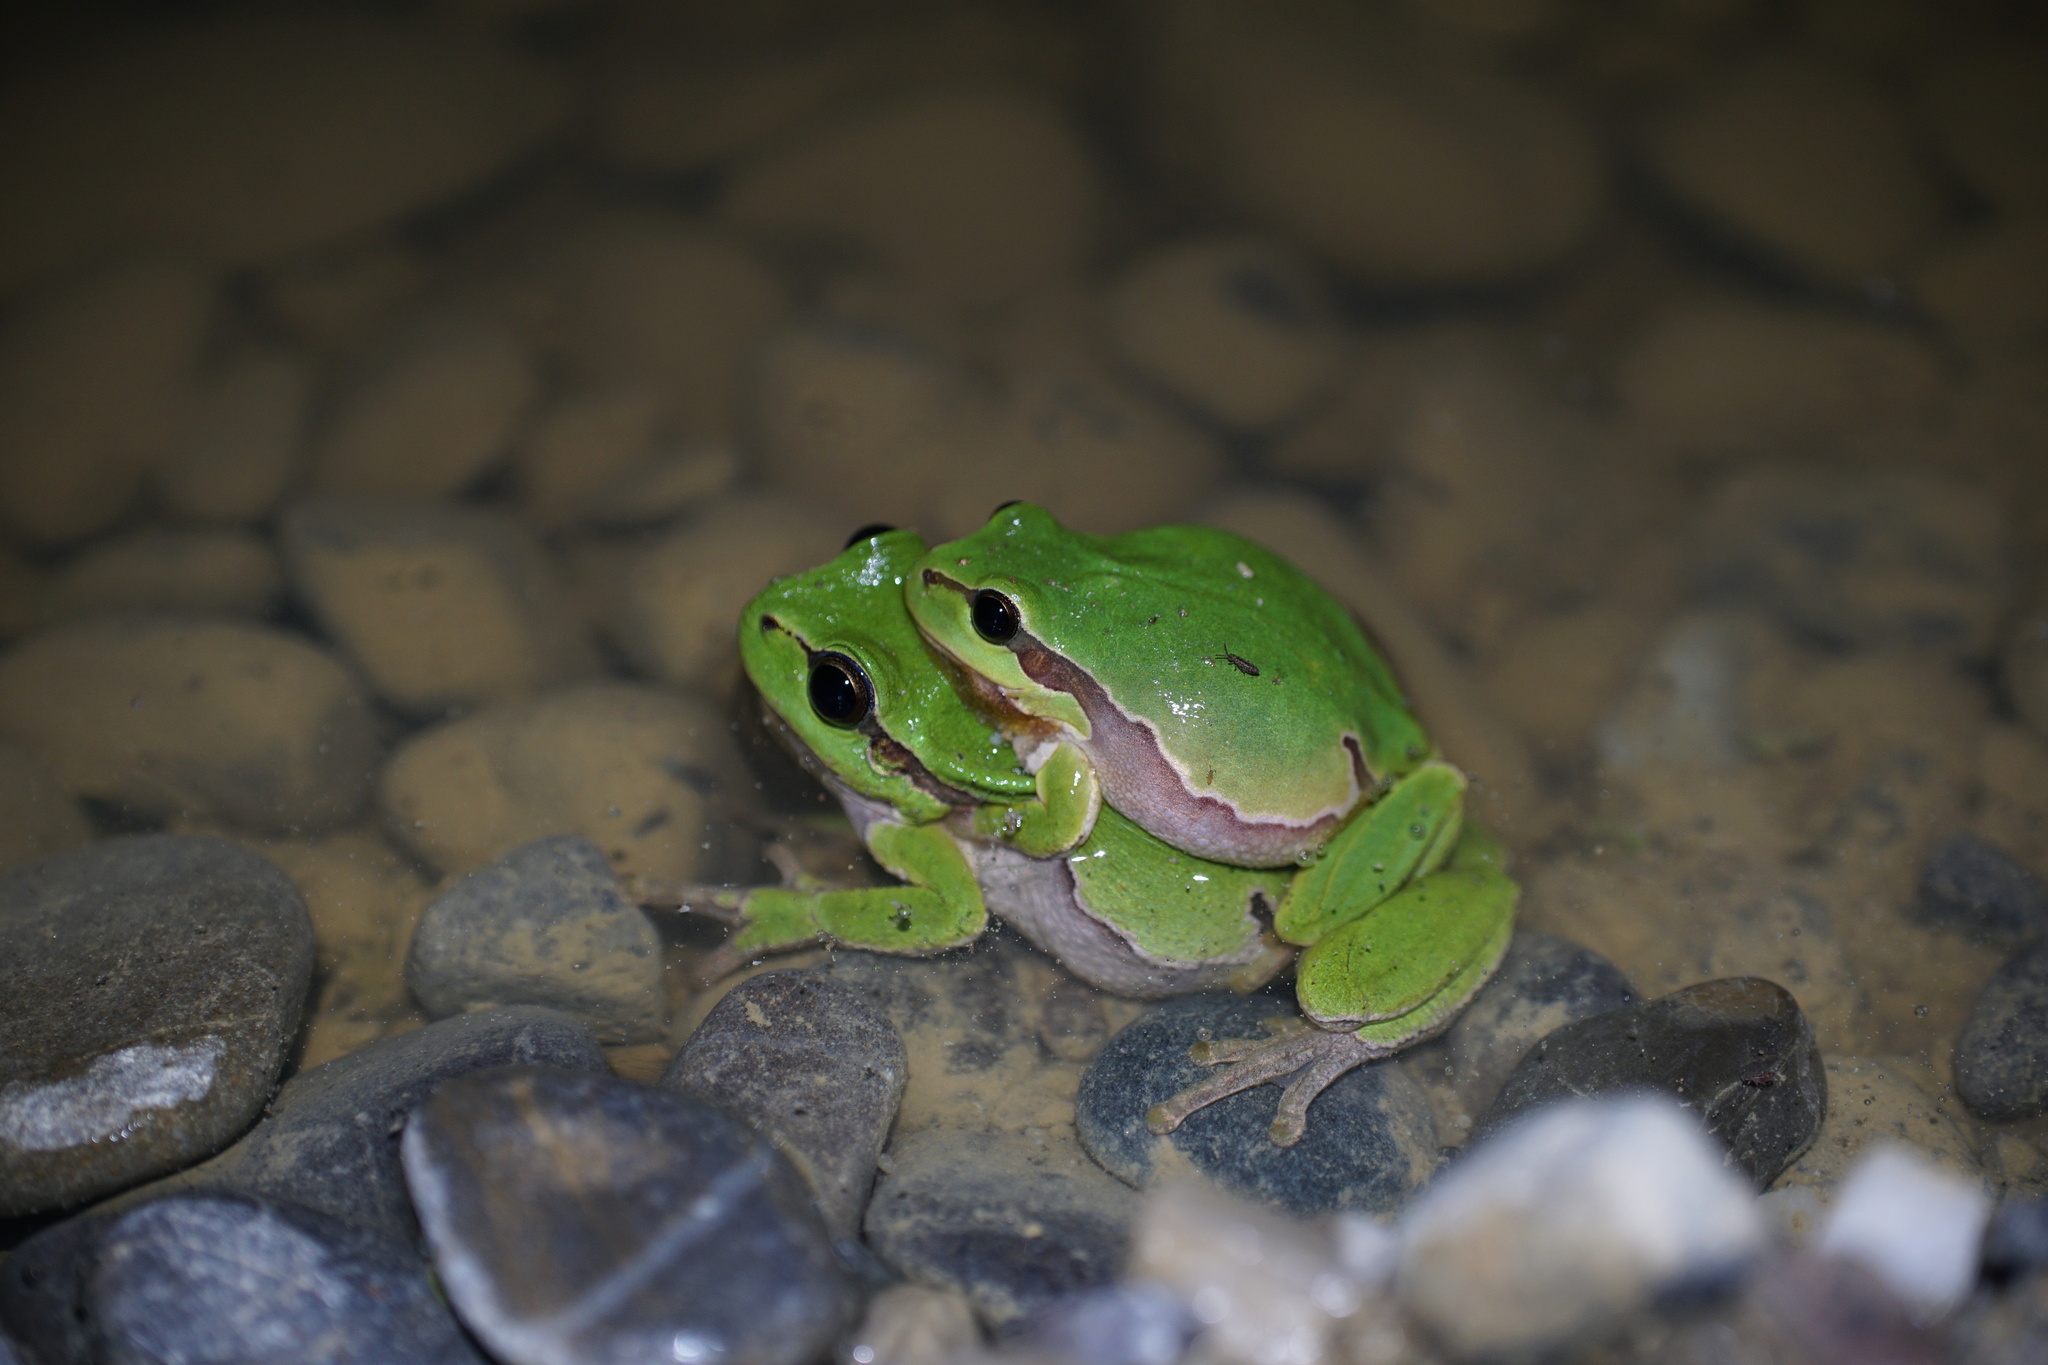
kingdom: Animalia
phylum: Chordata
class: Amphibia
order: Anura
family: Hylidae
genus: Hyla
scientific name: Hyla arborea
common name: Common tree frog
